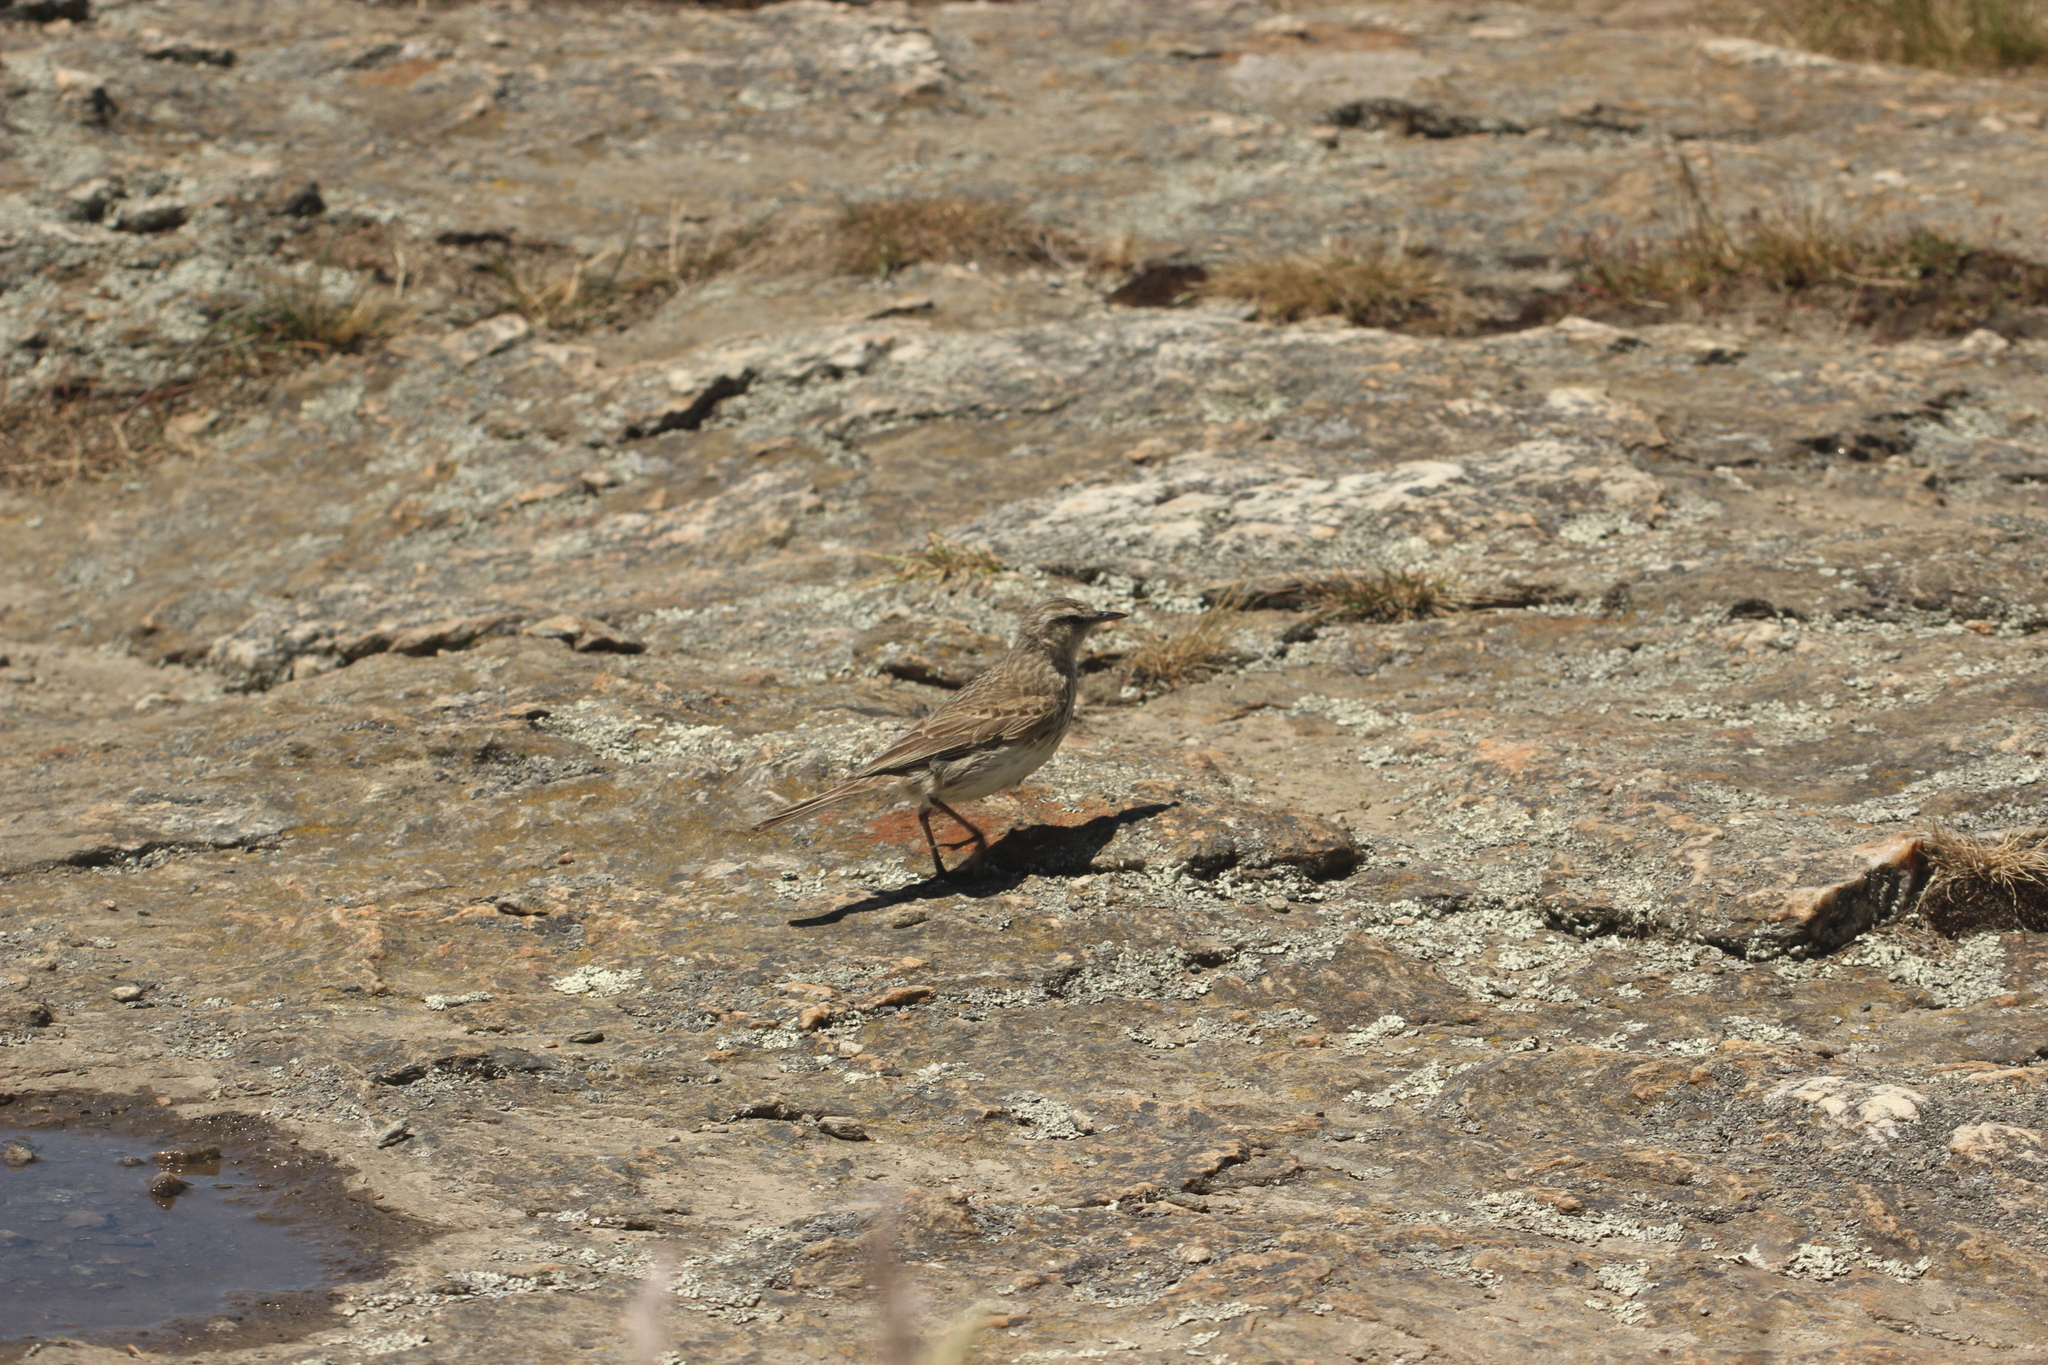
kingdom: Animalia
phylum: Chordata
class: Aves
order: Passeriformes
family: Motacillidae
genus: Anthus
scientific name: Anthus novaeseelandiae
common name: New zealand pipit
